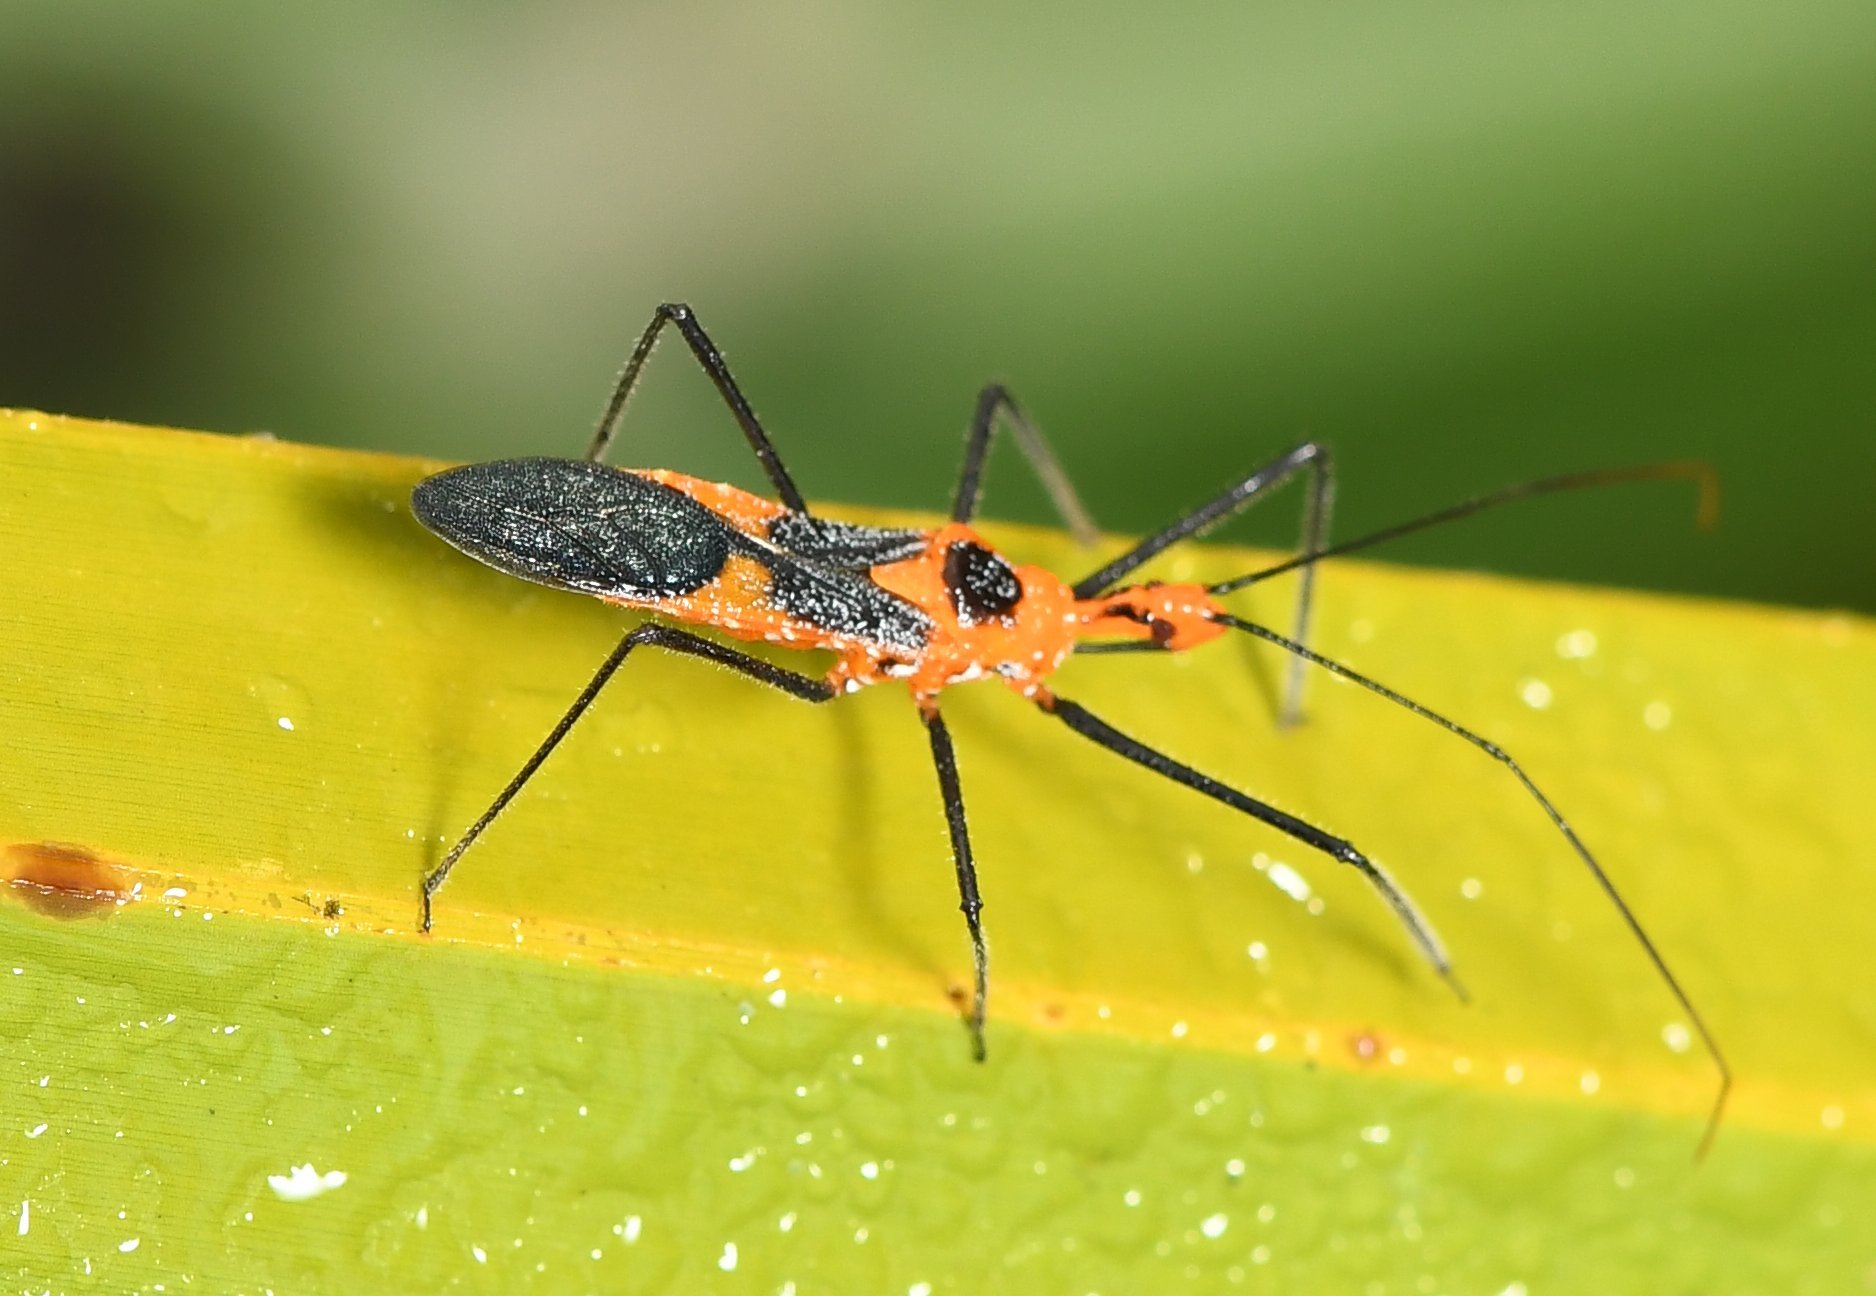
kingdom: Animalia
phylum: Arthropoda
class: Insecta
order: Hemiptera
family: Reduviidae
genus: Zelus
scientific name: Zelus longipes
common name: Milkweed assassin bug
